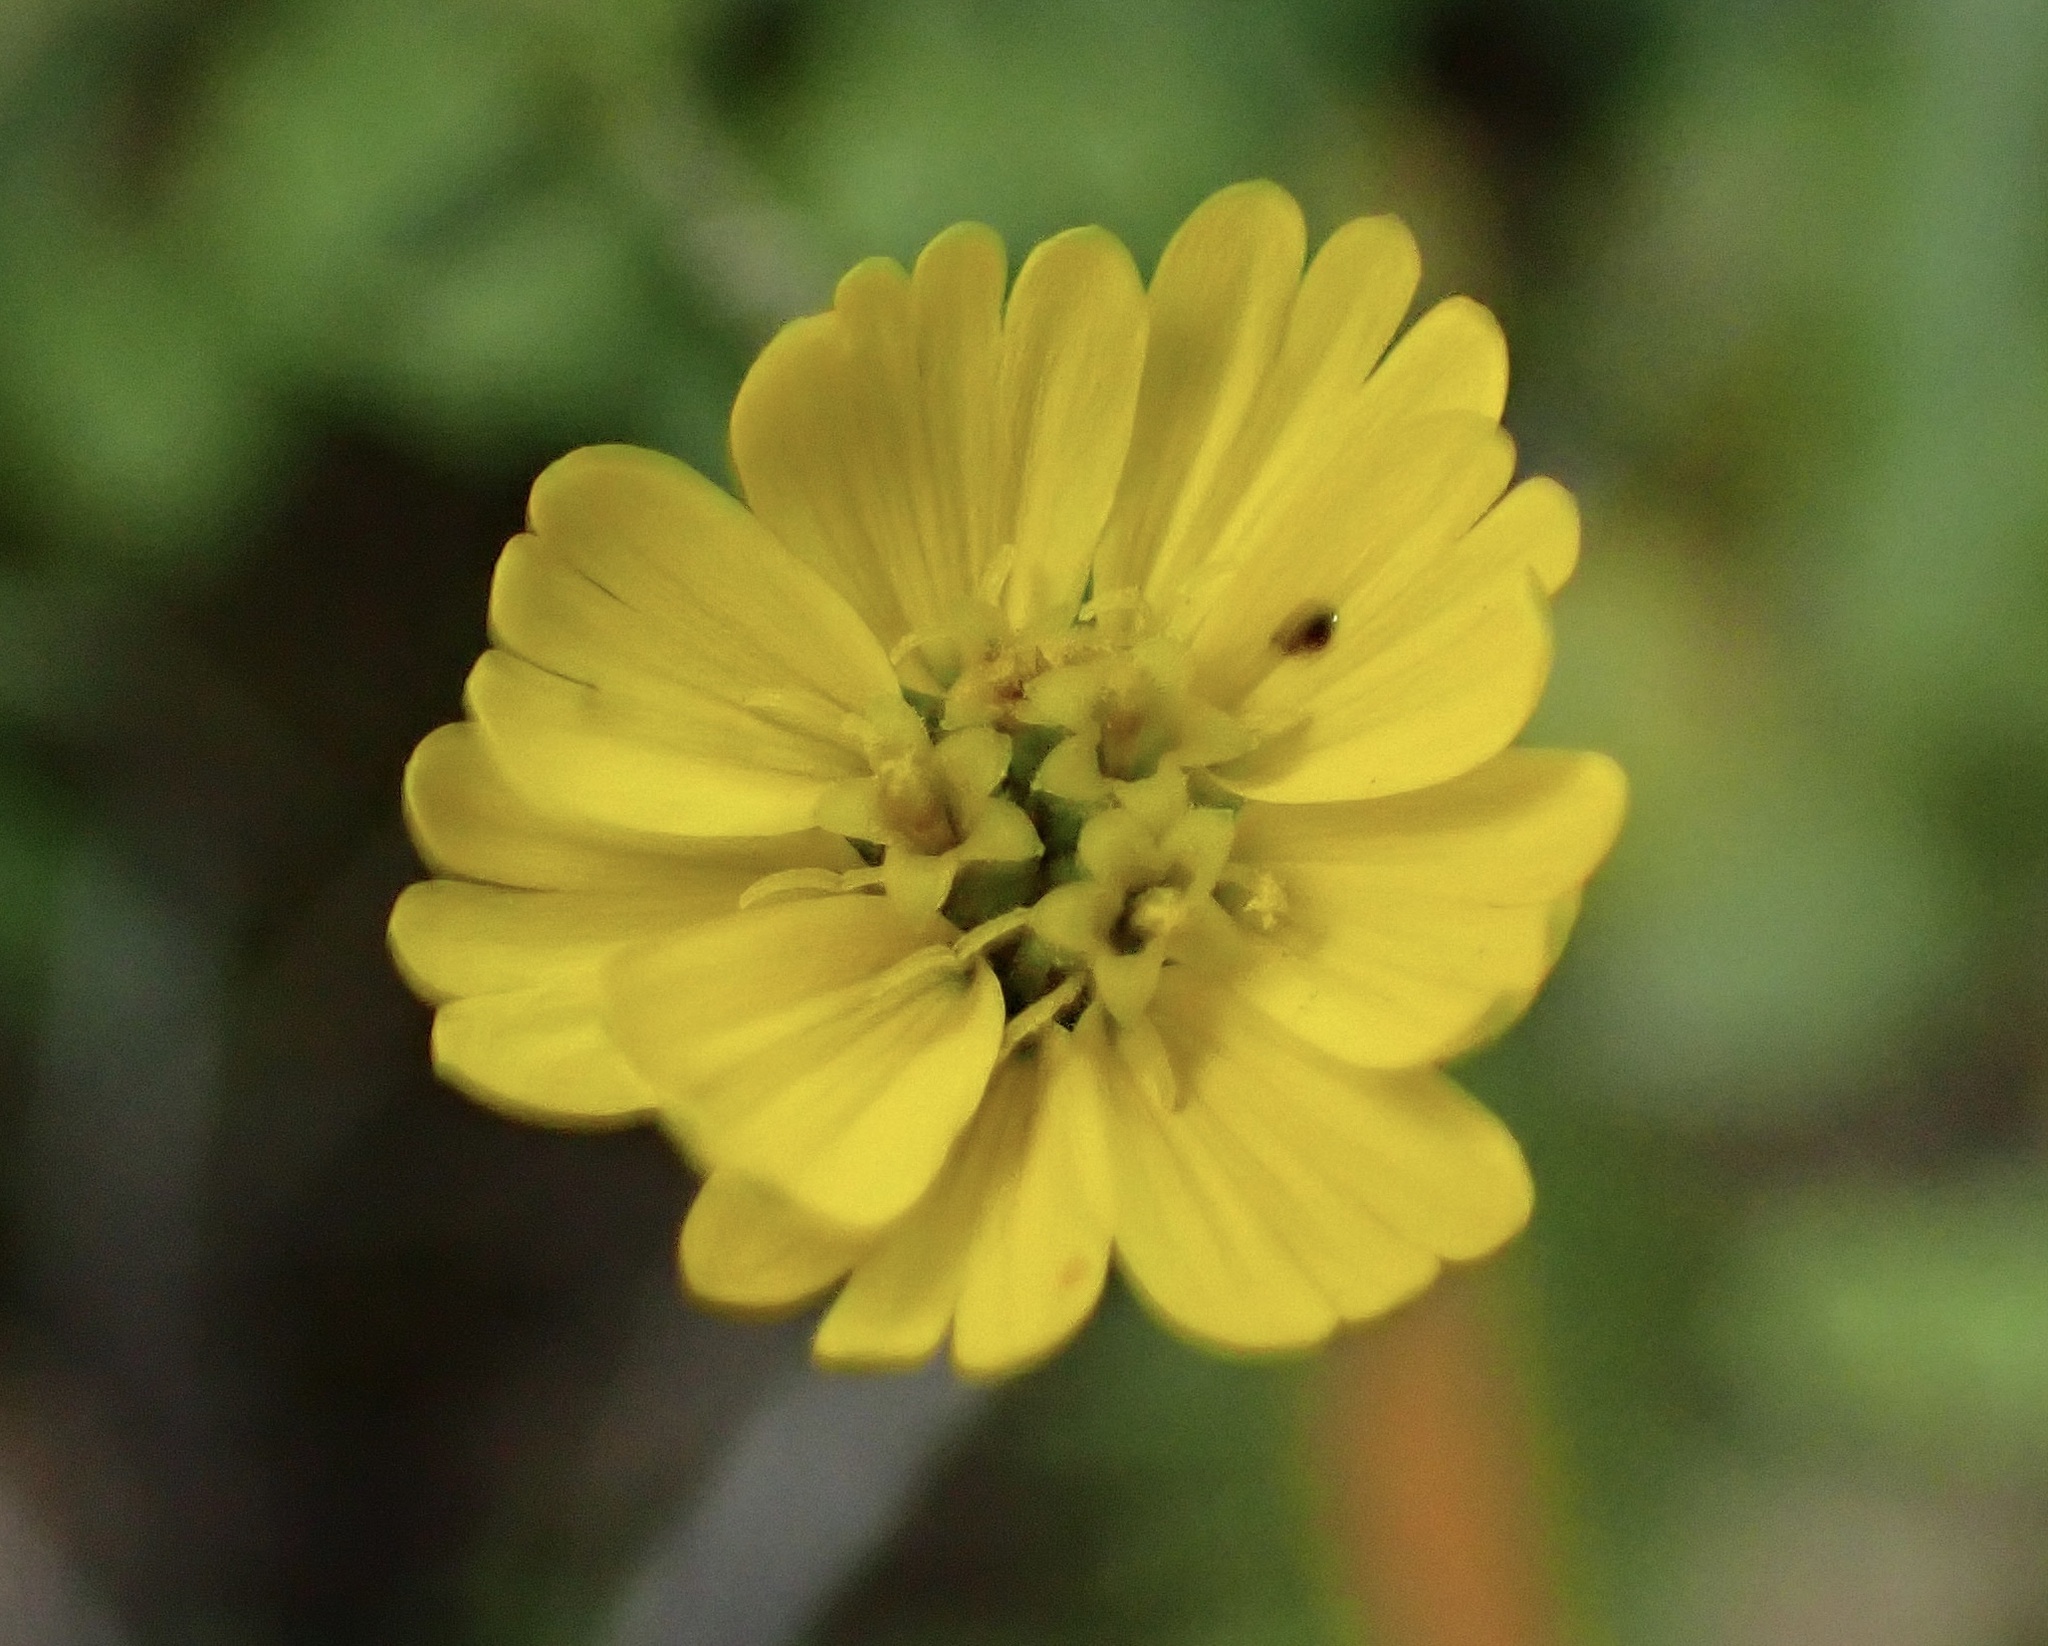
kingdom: Plantae
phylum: Tracheophyta
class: Magnoliopsida
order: Asterales
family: Asteraceae
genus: Anisocarpus
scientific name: Anisocarpus madioides
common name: Woodland madia
